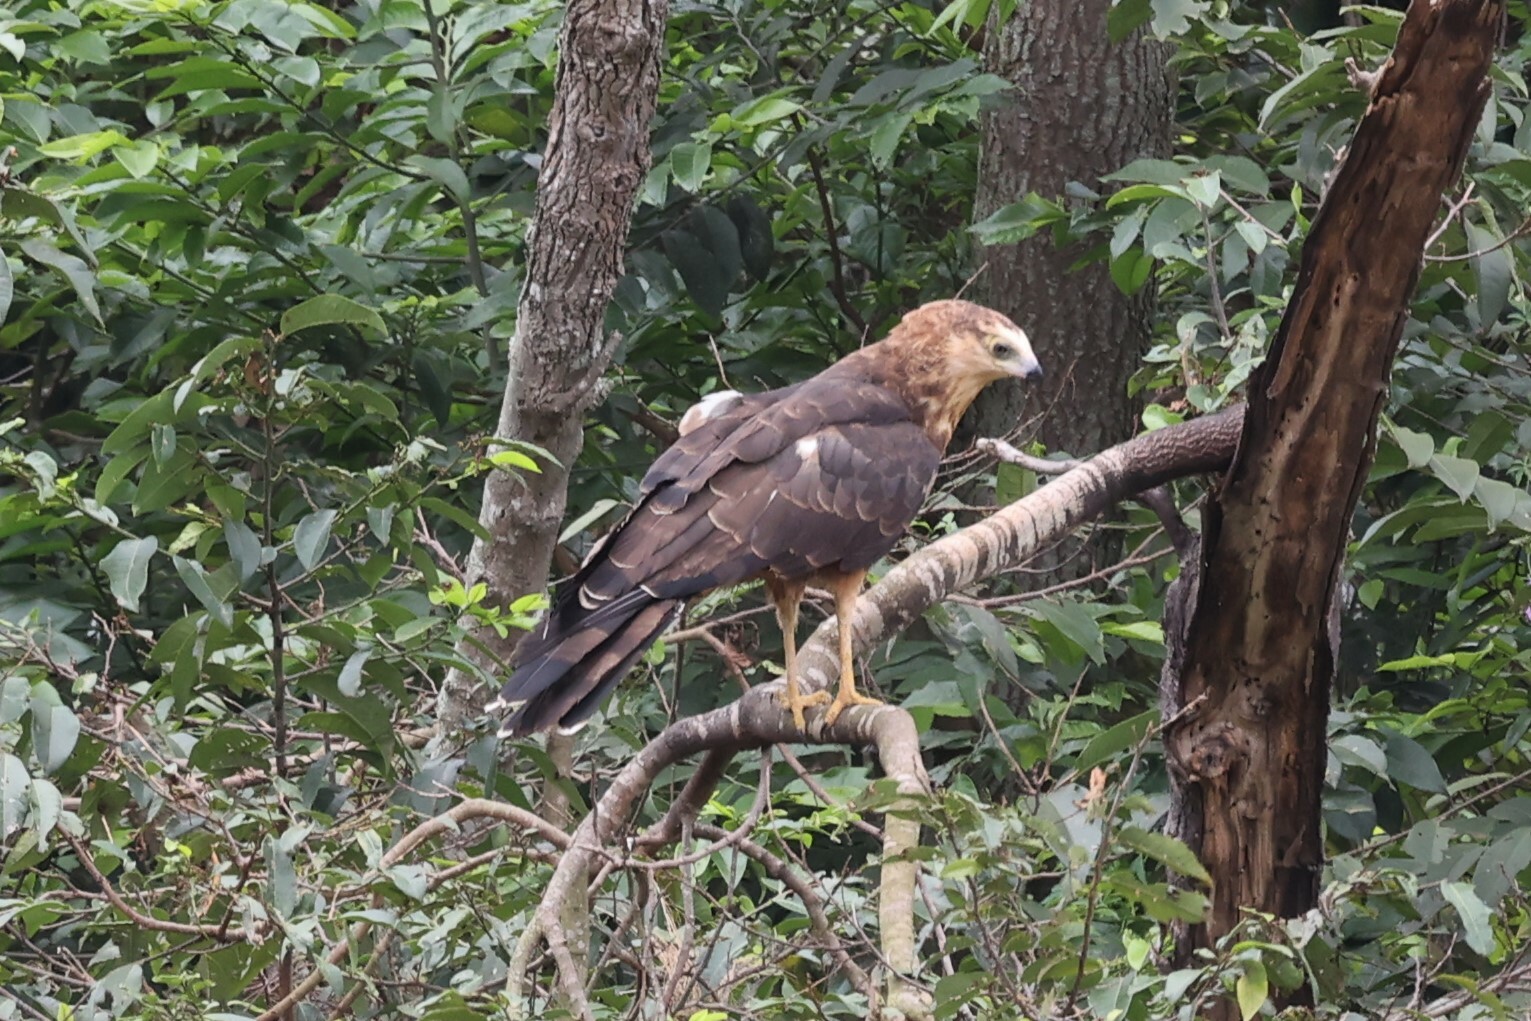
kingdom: Animalia
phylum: Chordata
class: Aves
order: Accipitriformes
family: Accipitridae
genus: Polyboroides
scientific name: Polyboroides typus
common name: African harrier-hawk
